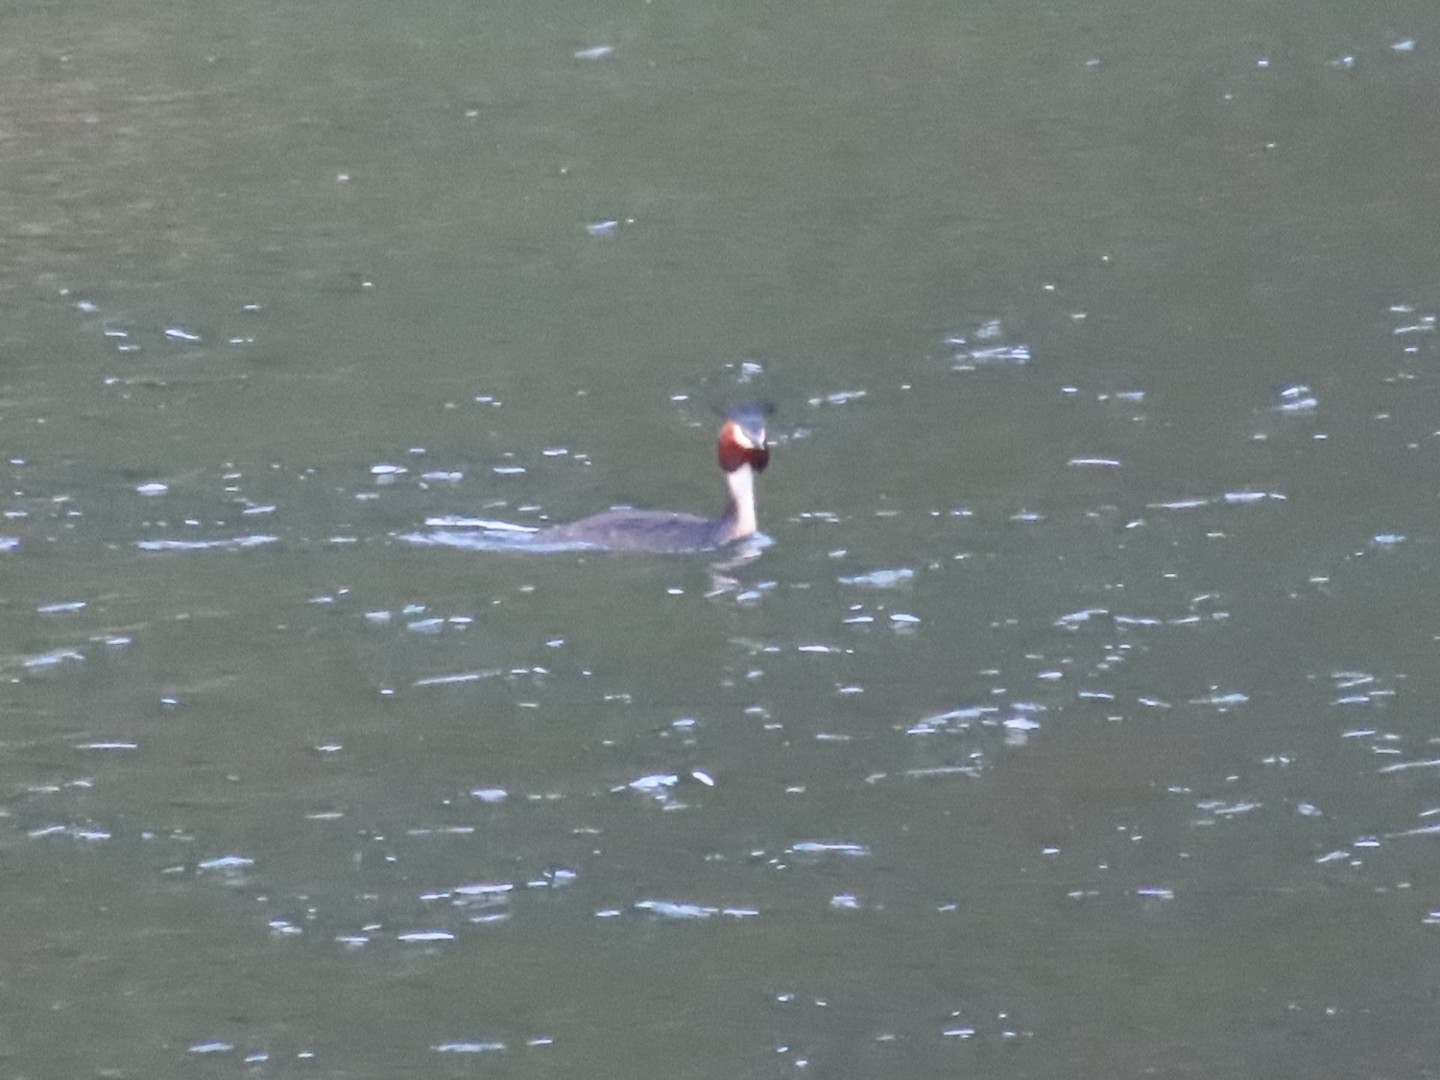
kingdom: Animalia
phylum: Chordata
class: Aves
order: Podicipediformes
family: Podicipedidae
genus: Podiceps
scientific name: Podiceps cristatus
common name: Great crested grebe
